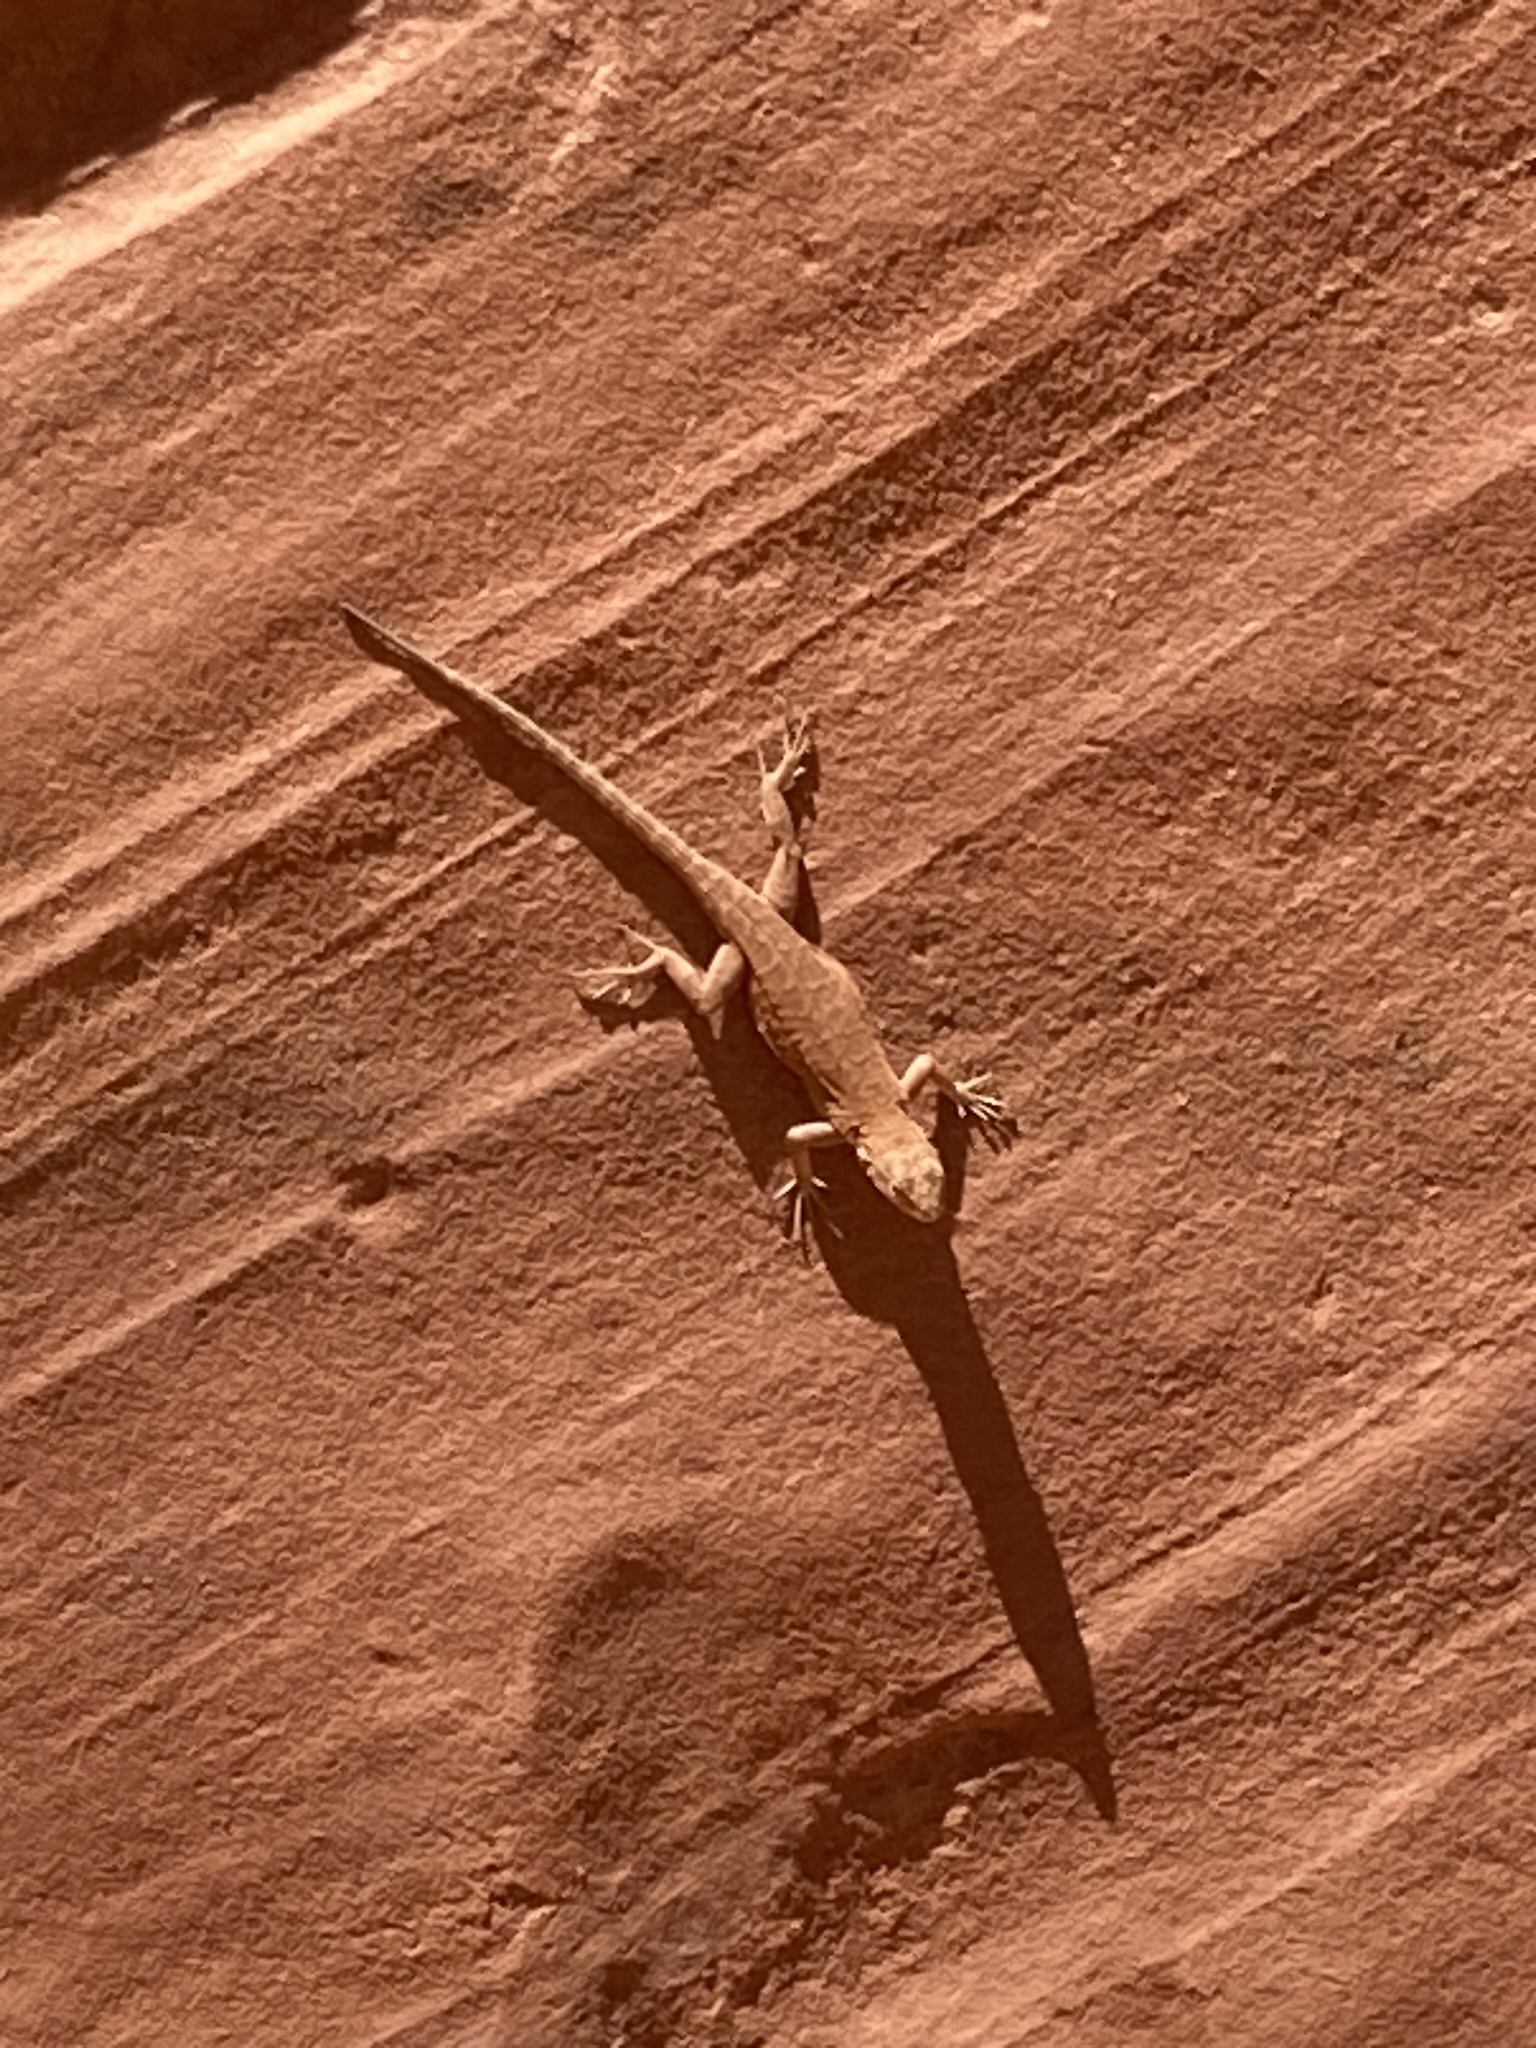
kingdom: Animalia
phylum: Chordata
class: Squamata
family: Phrynosomatidae
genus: Urosaurus
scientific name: Urosaurus ornatus
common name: Ornate tree lizard
